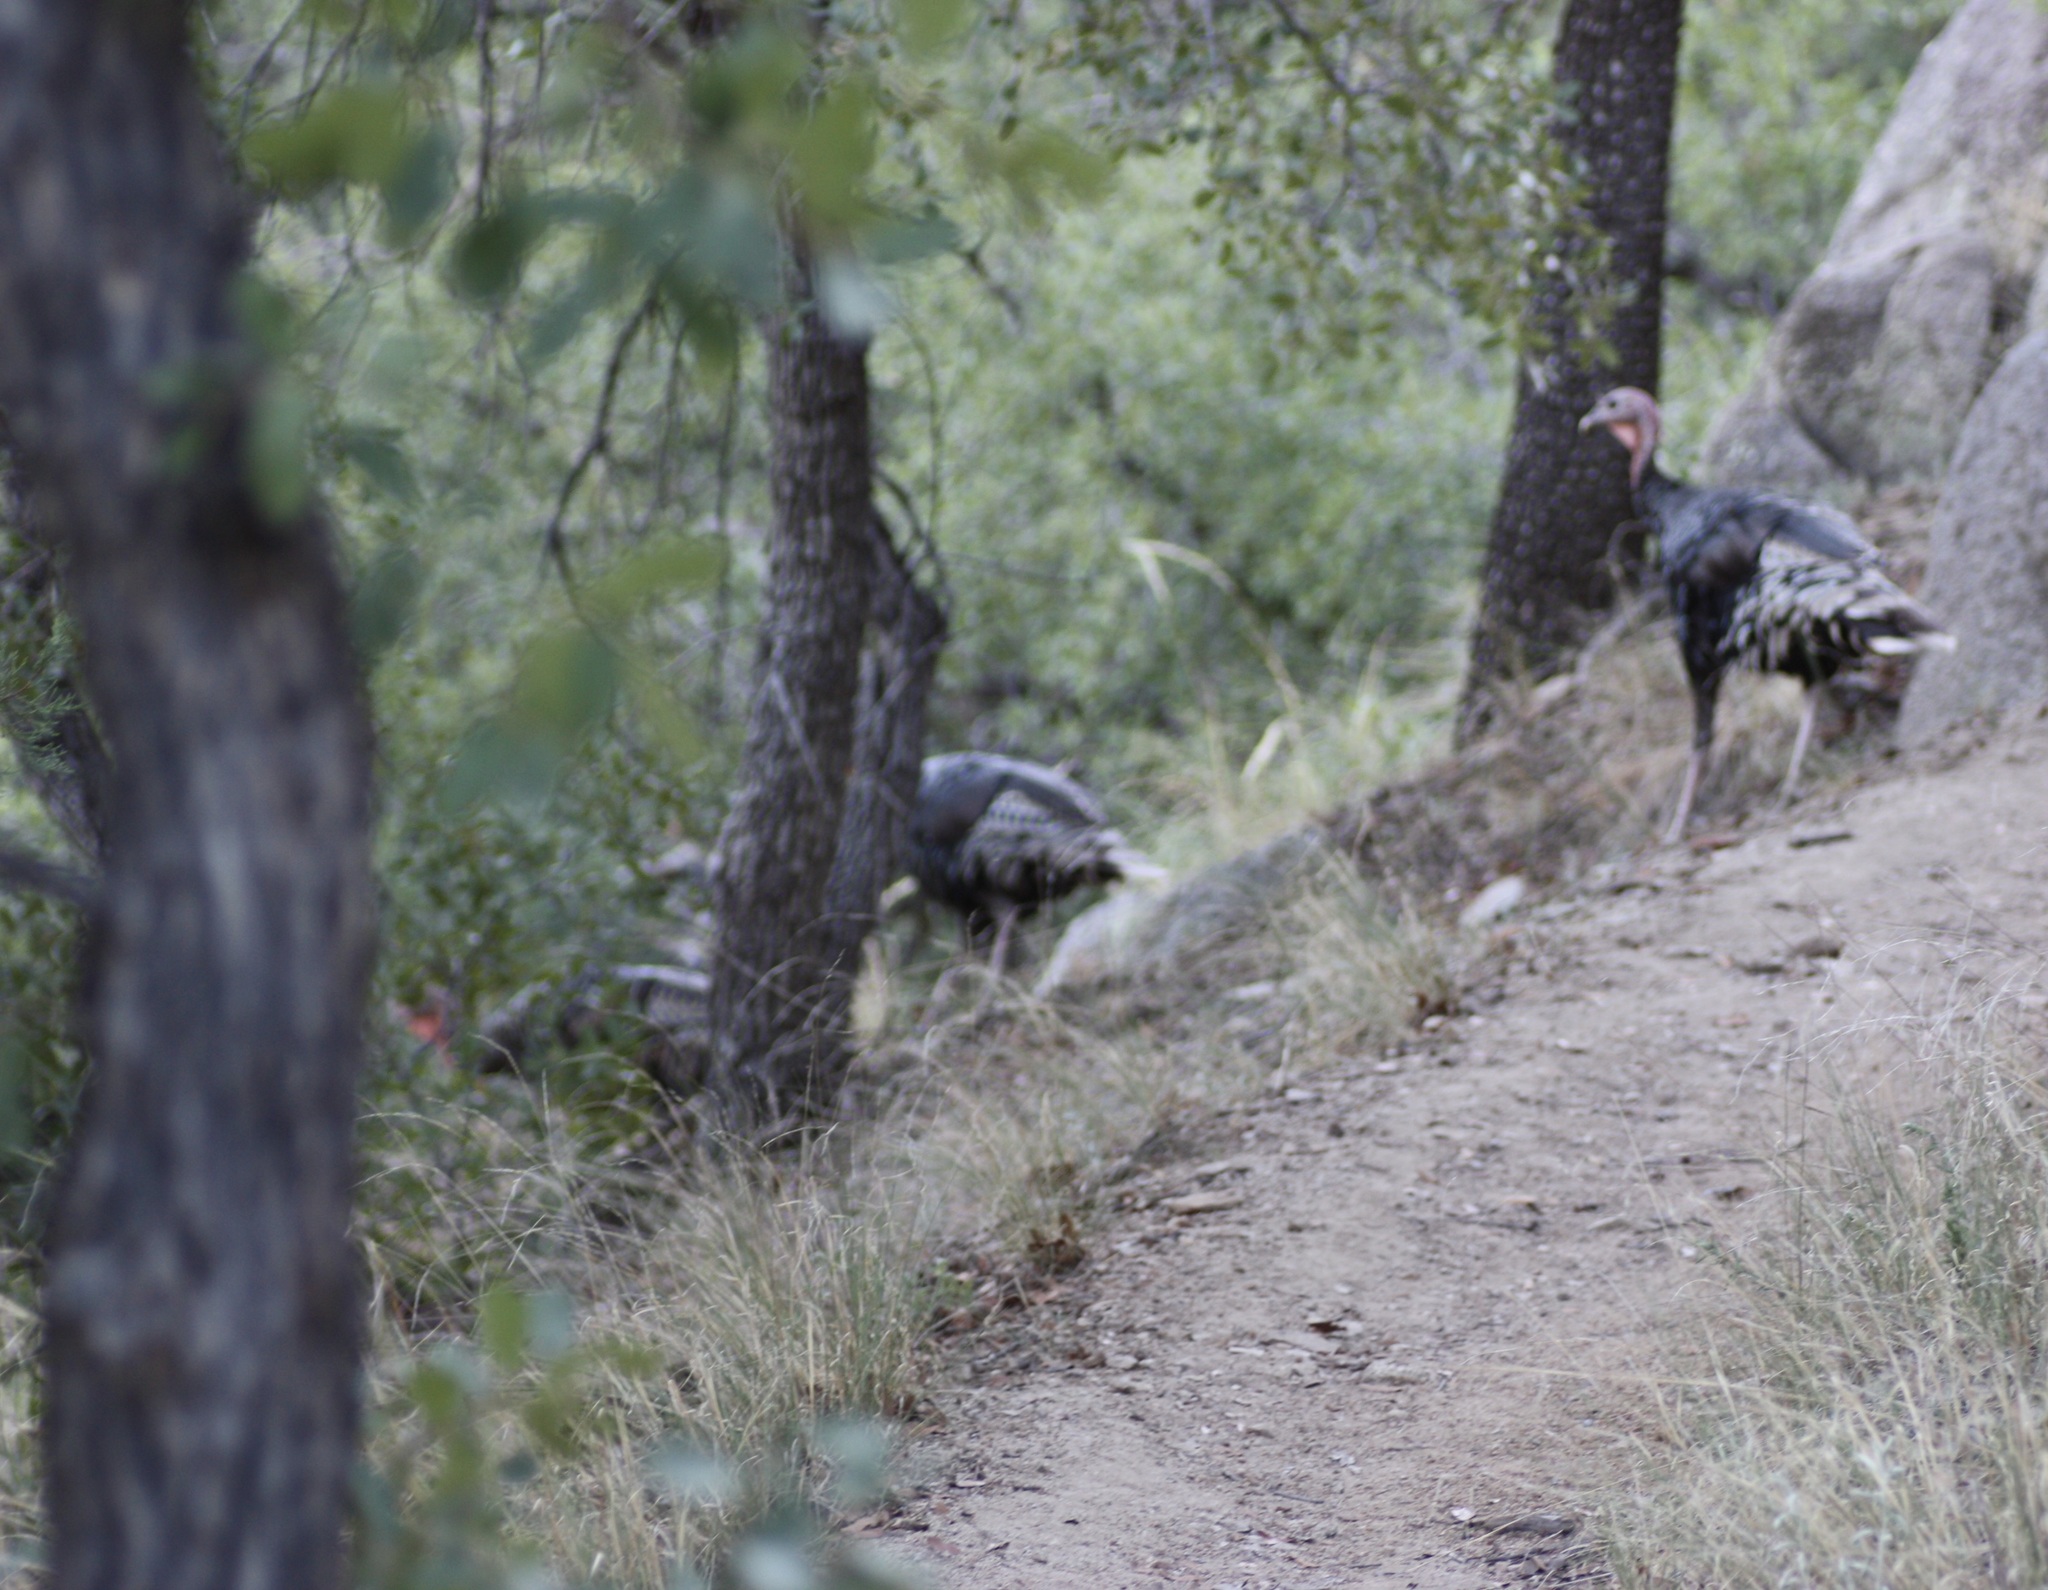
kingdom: Animalia
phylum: Chordata
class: Aves
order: Galliformes
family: Phasianidae
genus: Meleagris
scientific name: Meleagris gallopavo
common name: Wild turkey
